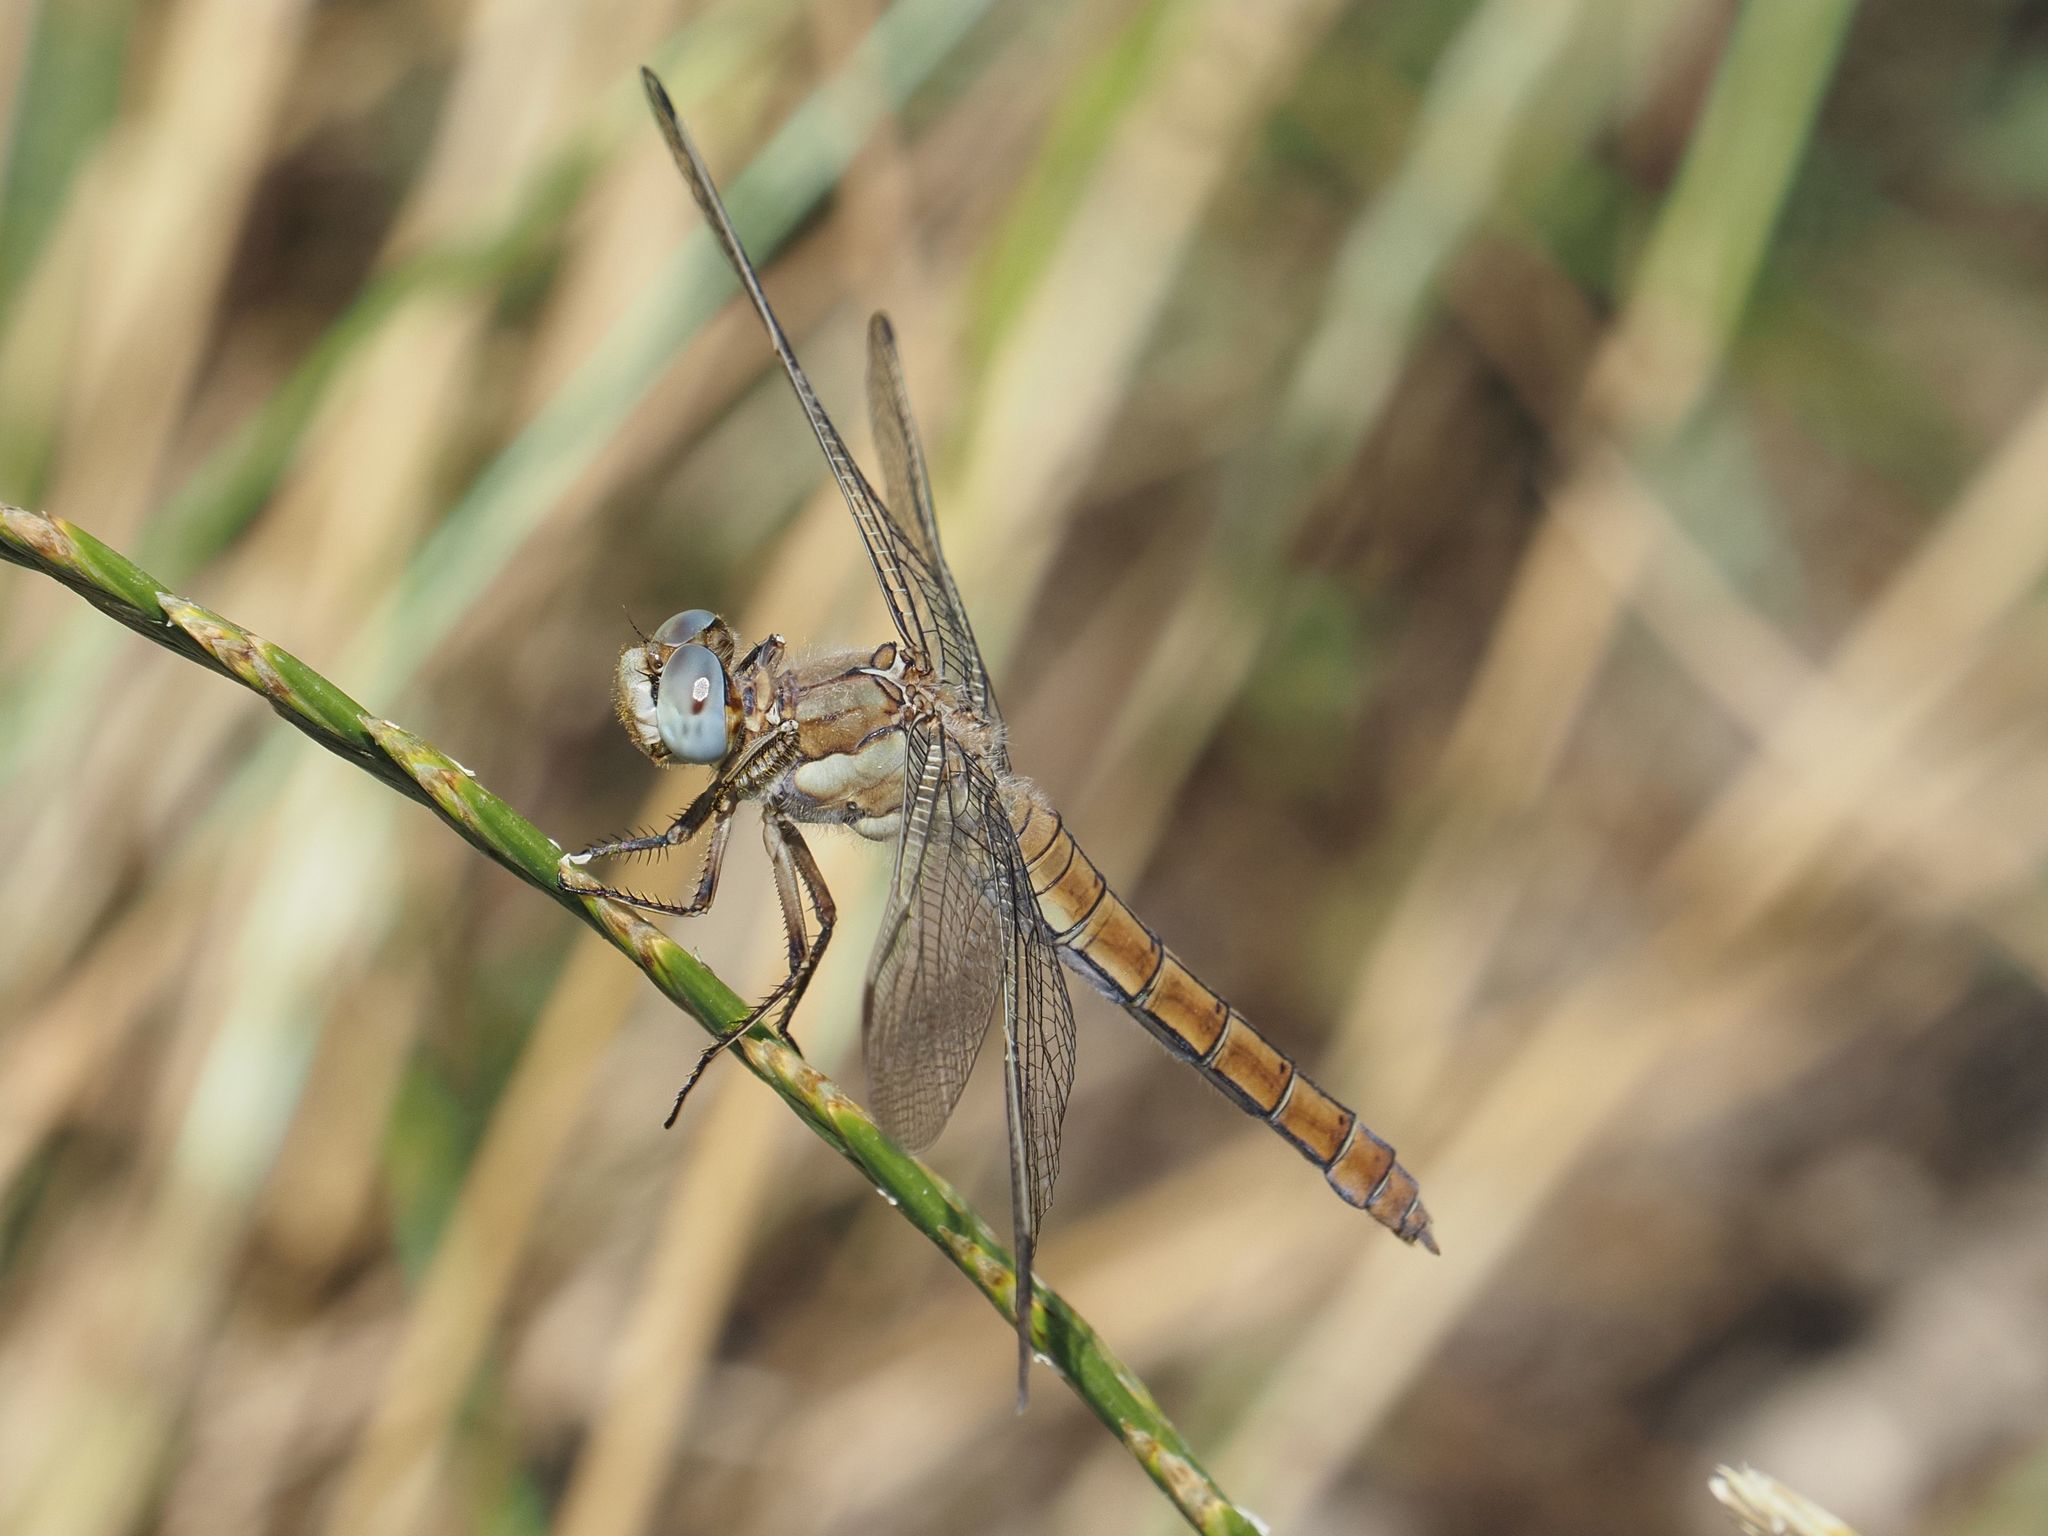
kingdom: Animalia
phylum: Arthropoda
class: Insecta
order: Odonata
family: Libellulidae
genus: Orthetrum
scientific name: Orthetrum brunneum
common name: Southern skimmer
